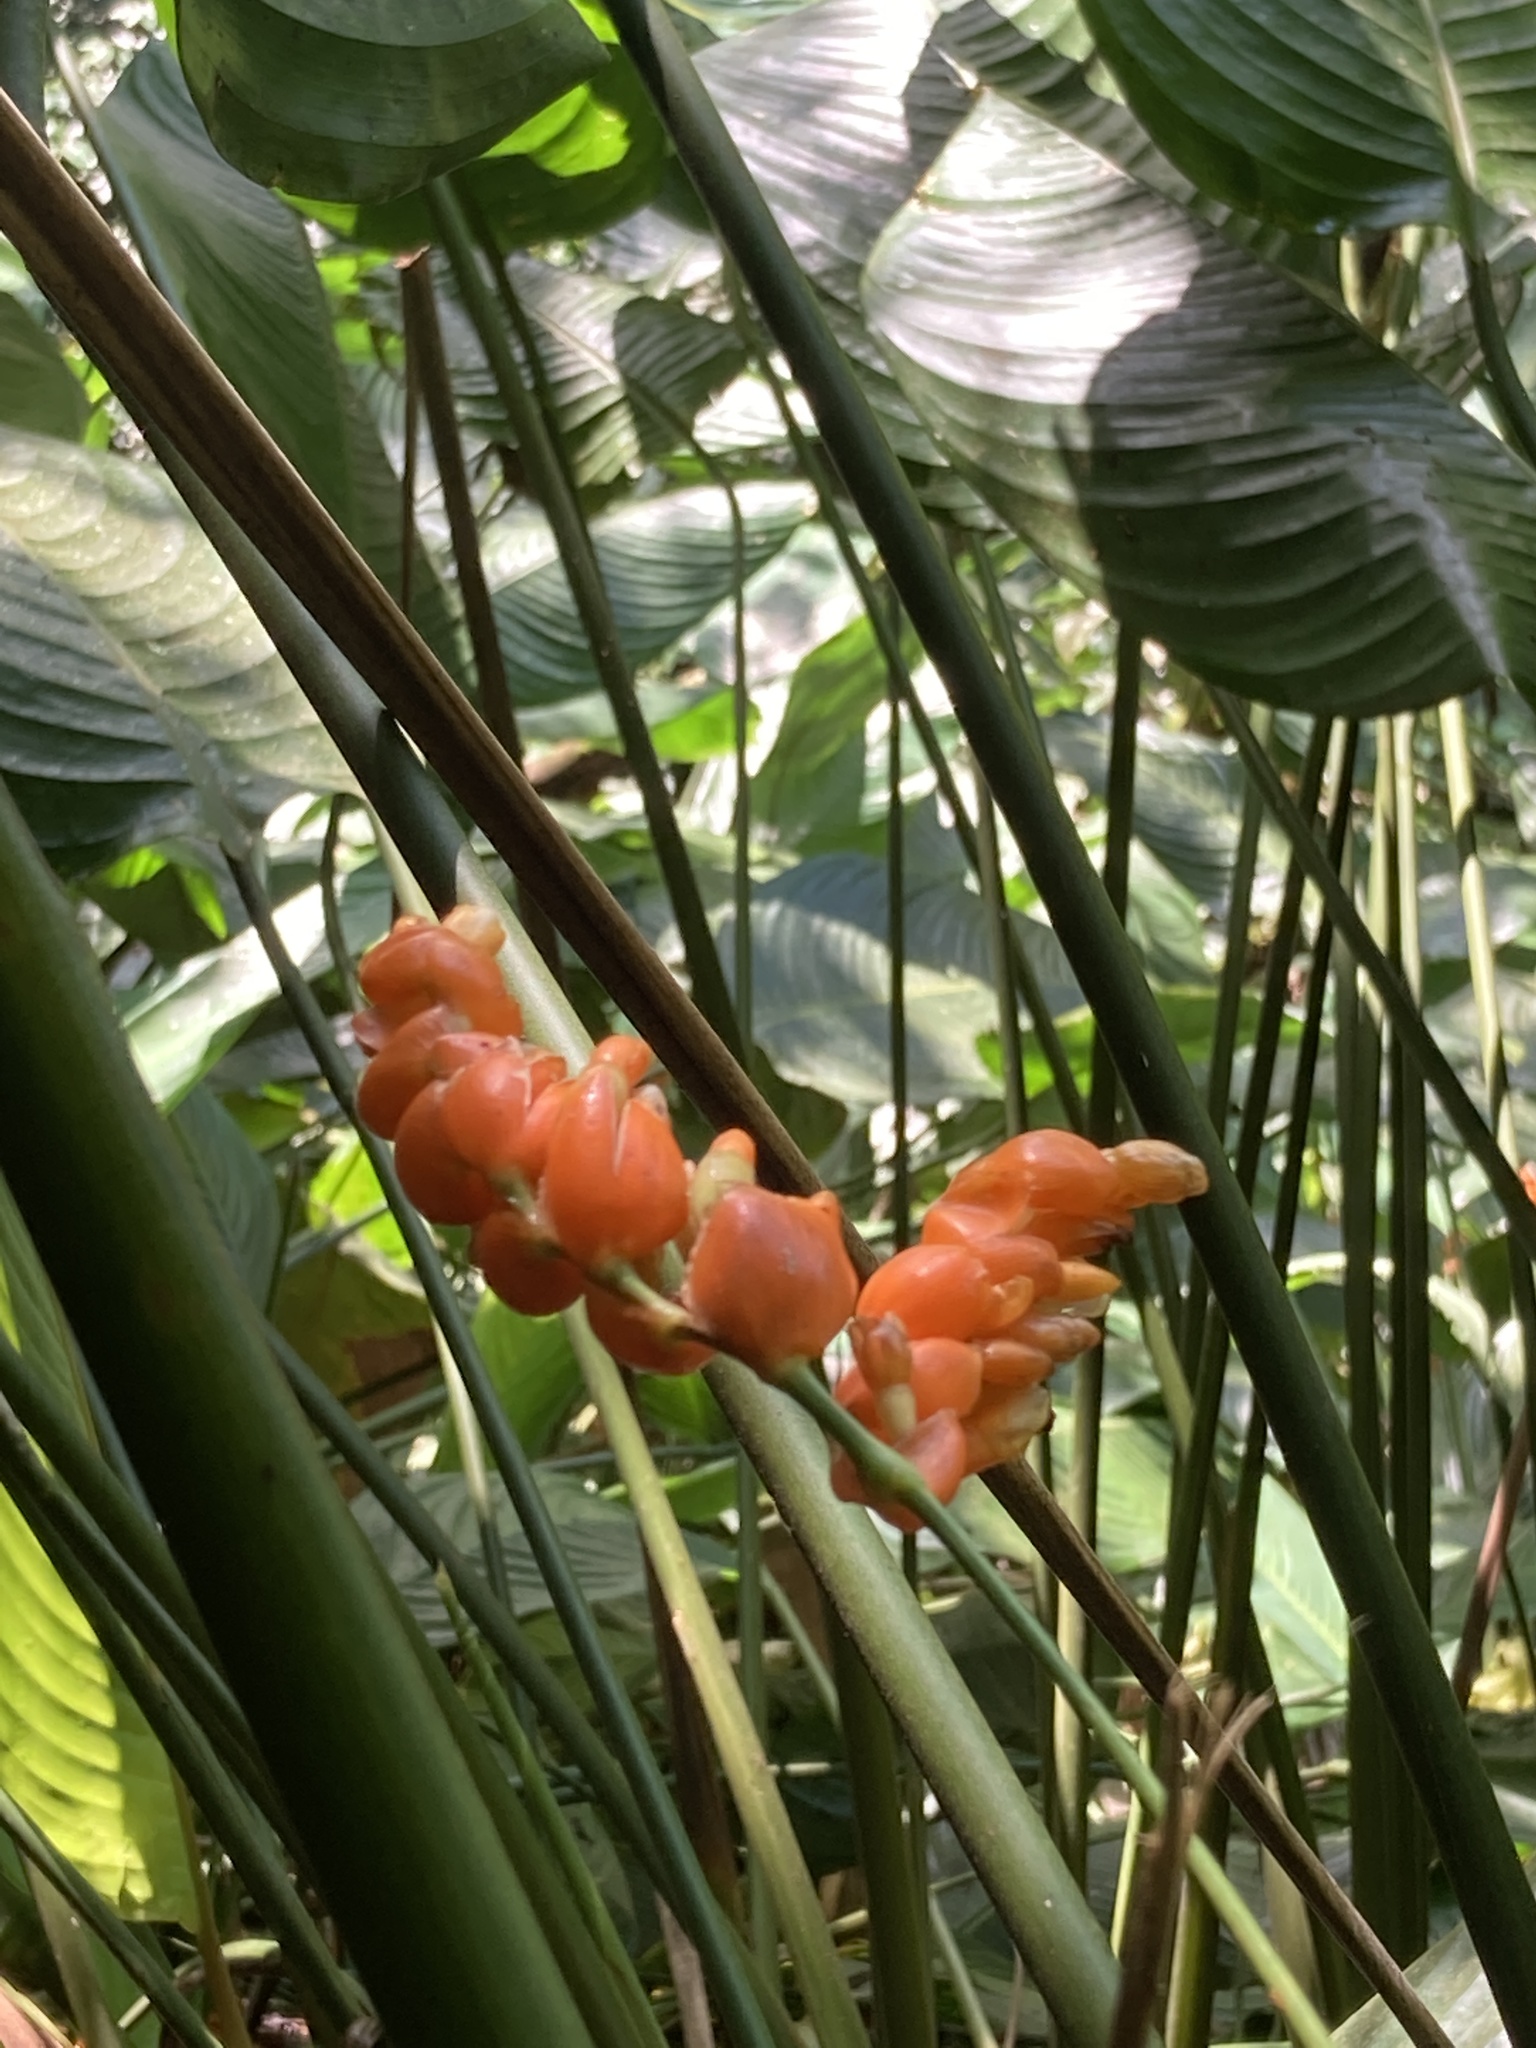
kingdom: Plantae
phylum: Tracheophyta
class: Liliopsida
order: Zingiberales
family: Marantaceae
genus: Stromanthe
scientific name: Stromanthe stromanthoides
